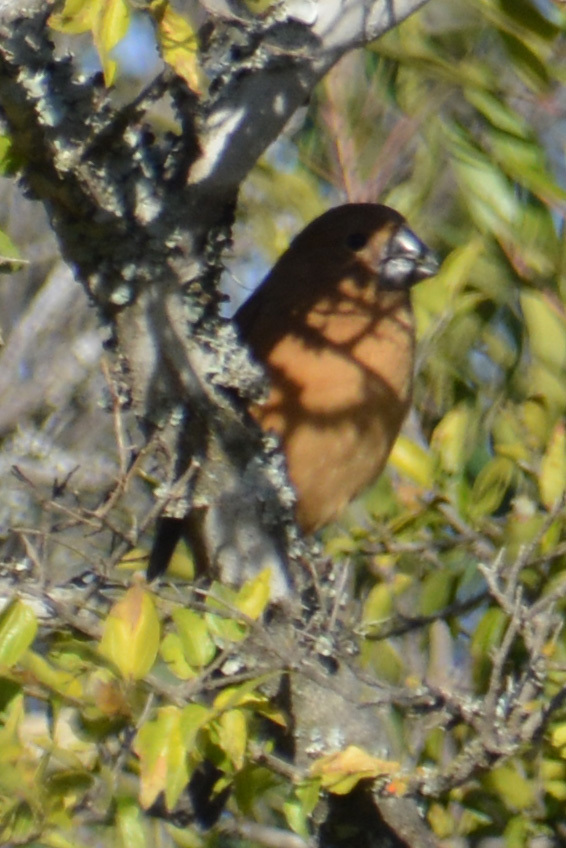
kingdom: Animalia
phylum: Chordata
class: Aves
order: Passeriformes
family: Cardinalidae
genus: Cyanoloxia
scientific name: Cyanoloxia brissonii
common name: Ultramarine grosbeak
